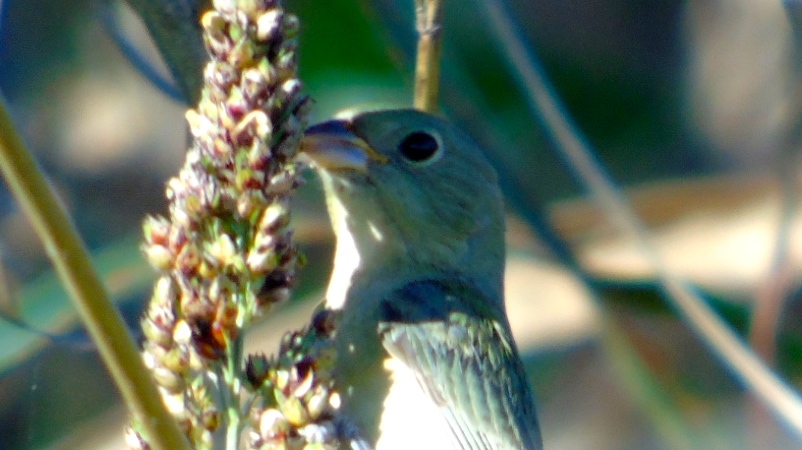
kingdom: Animalia
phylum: Chordata
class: Aves
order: Passeriformes
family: Cardinalidae
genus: Passerina
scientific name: Passerina ciris
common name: Painted bunting
